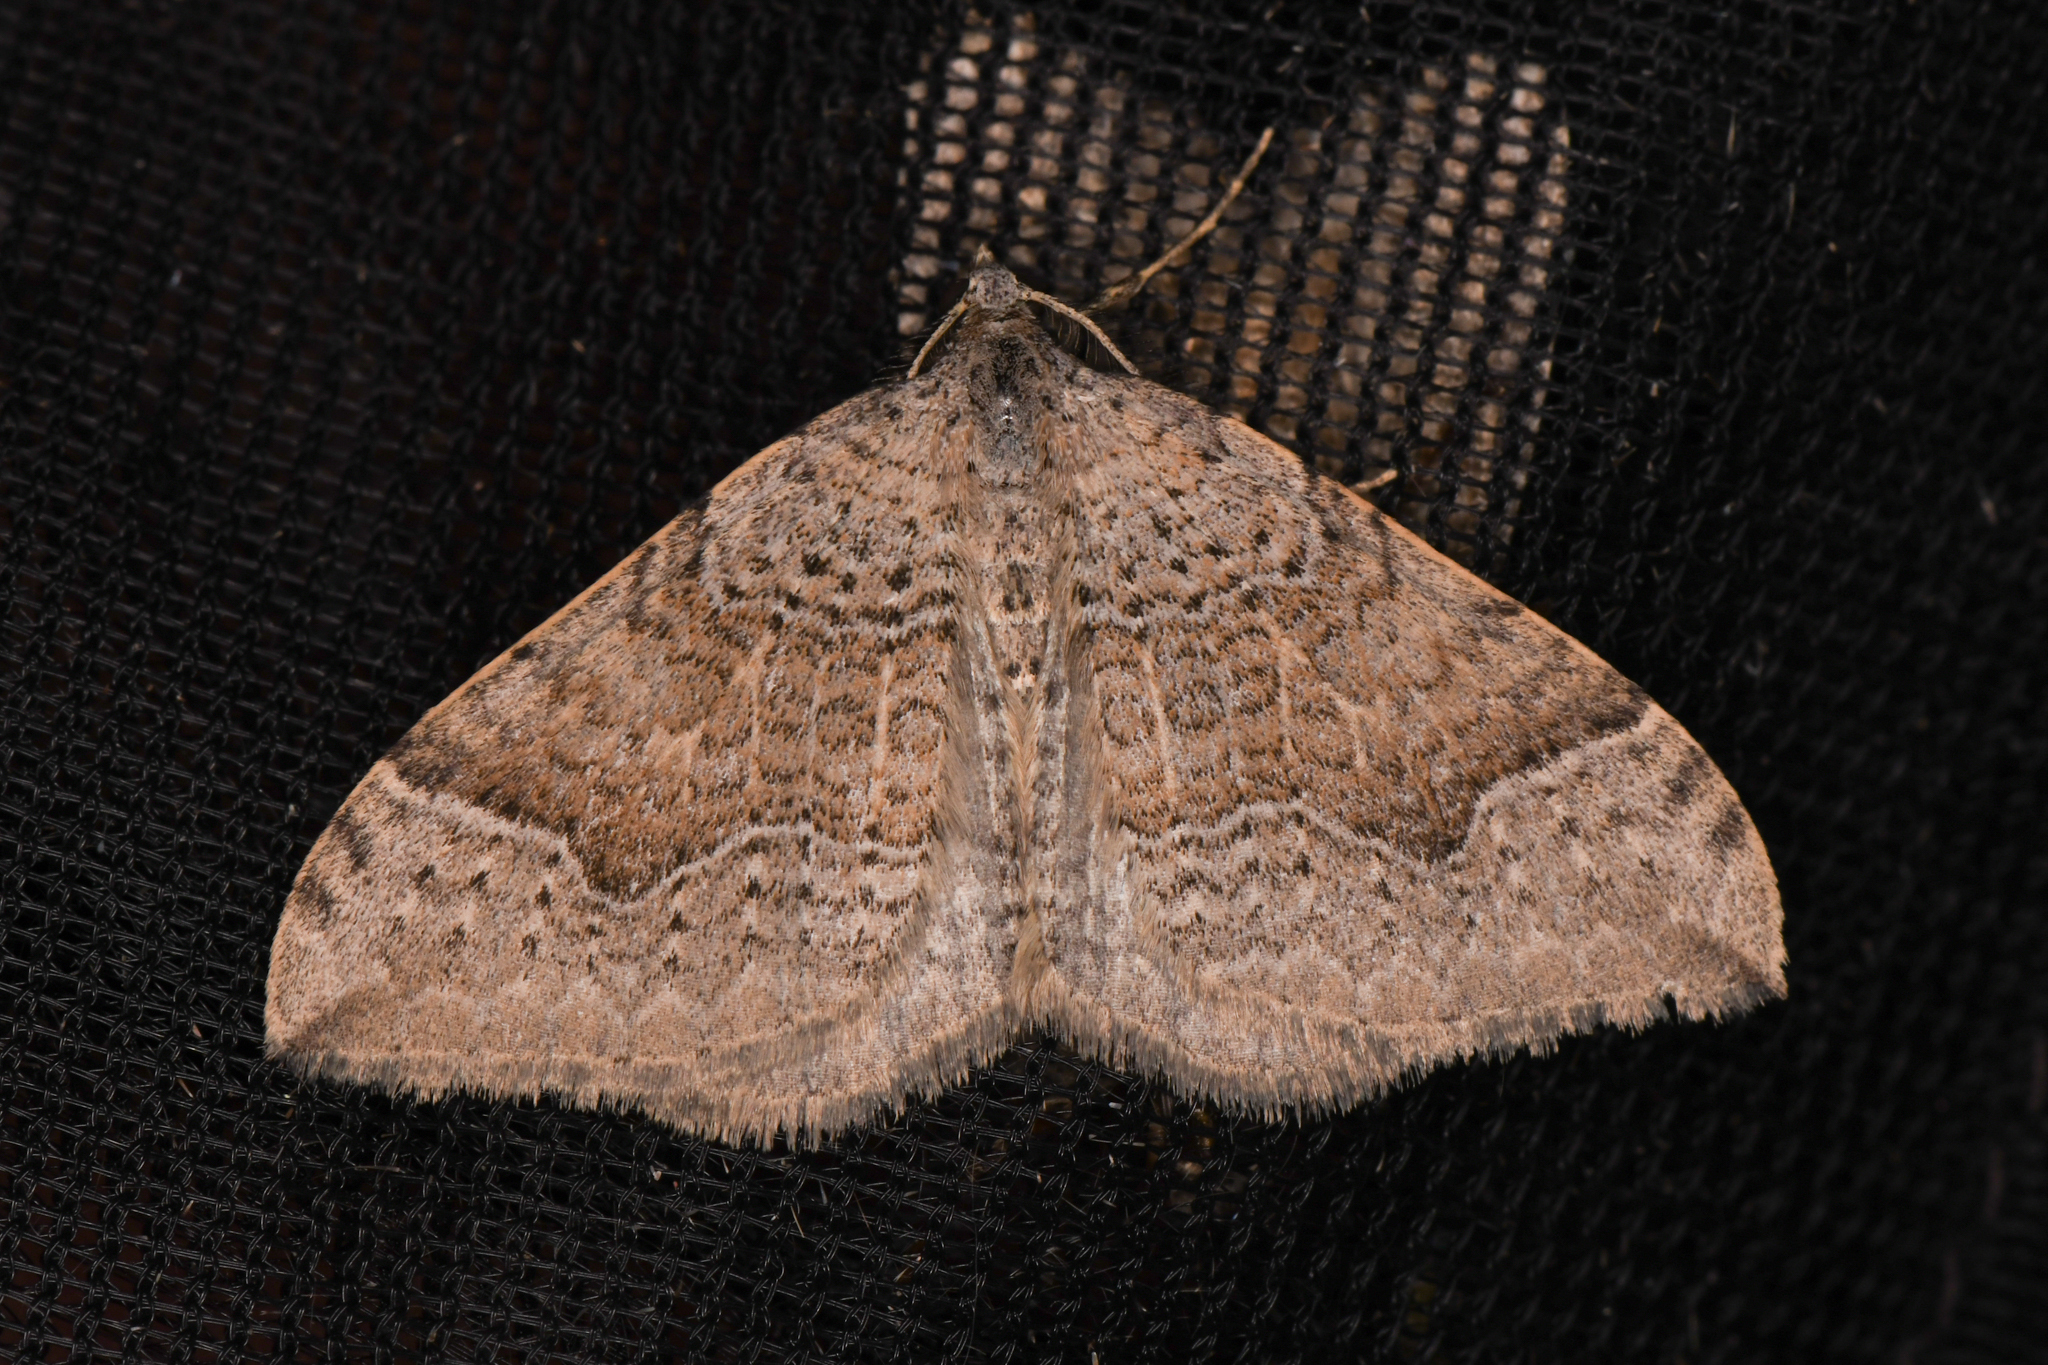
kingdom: Animalia
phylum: Arthropoda
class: Insecta
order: Lepidoptera
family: Geometridae
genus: Zenophleps
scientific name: Zenophleps lignicolorata
